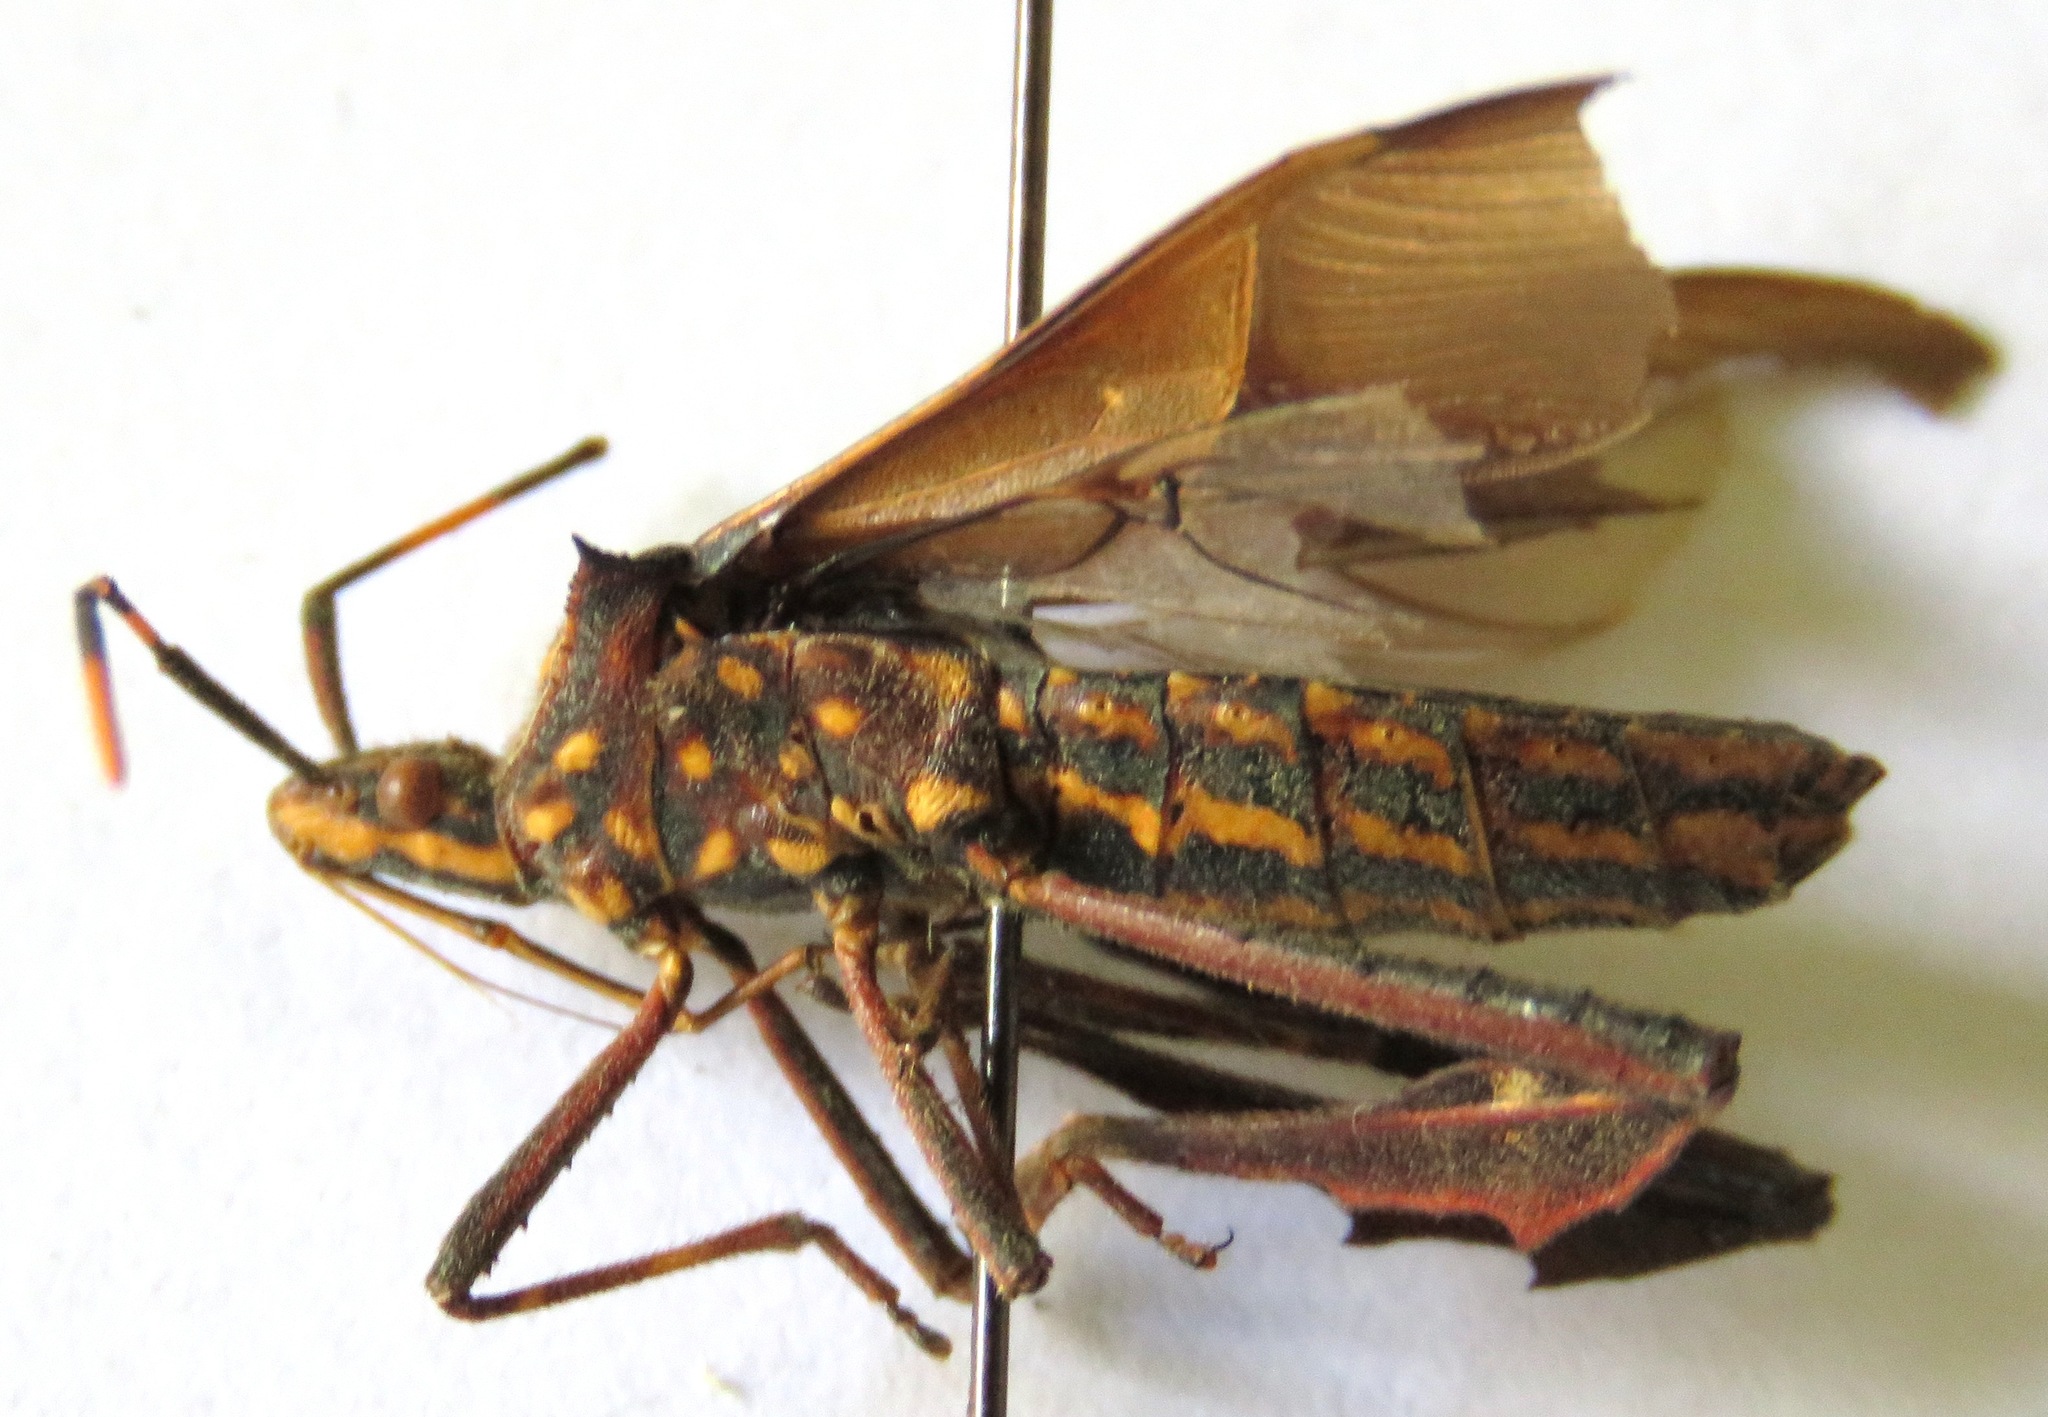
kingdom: Animalia
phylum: Arthropoda
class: Insecta
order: Hemiptera
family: Coreidae
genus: Leptoglossus
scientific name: Leptoglossus gonagra
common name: Citron bug
